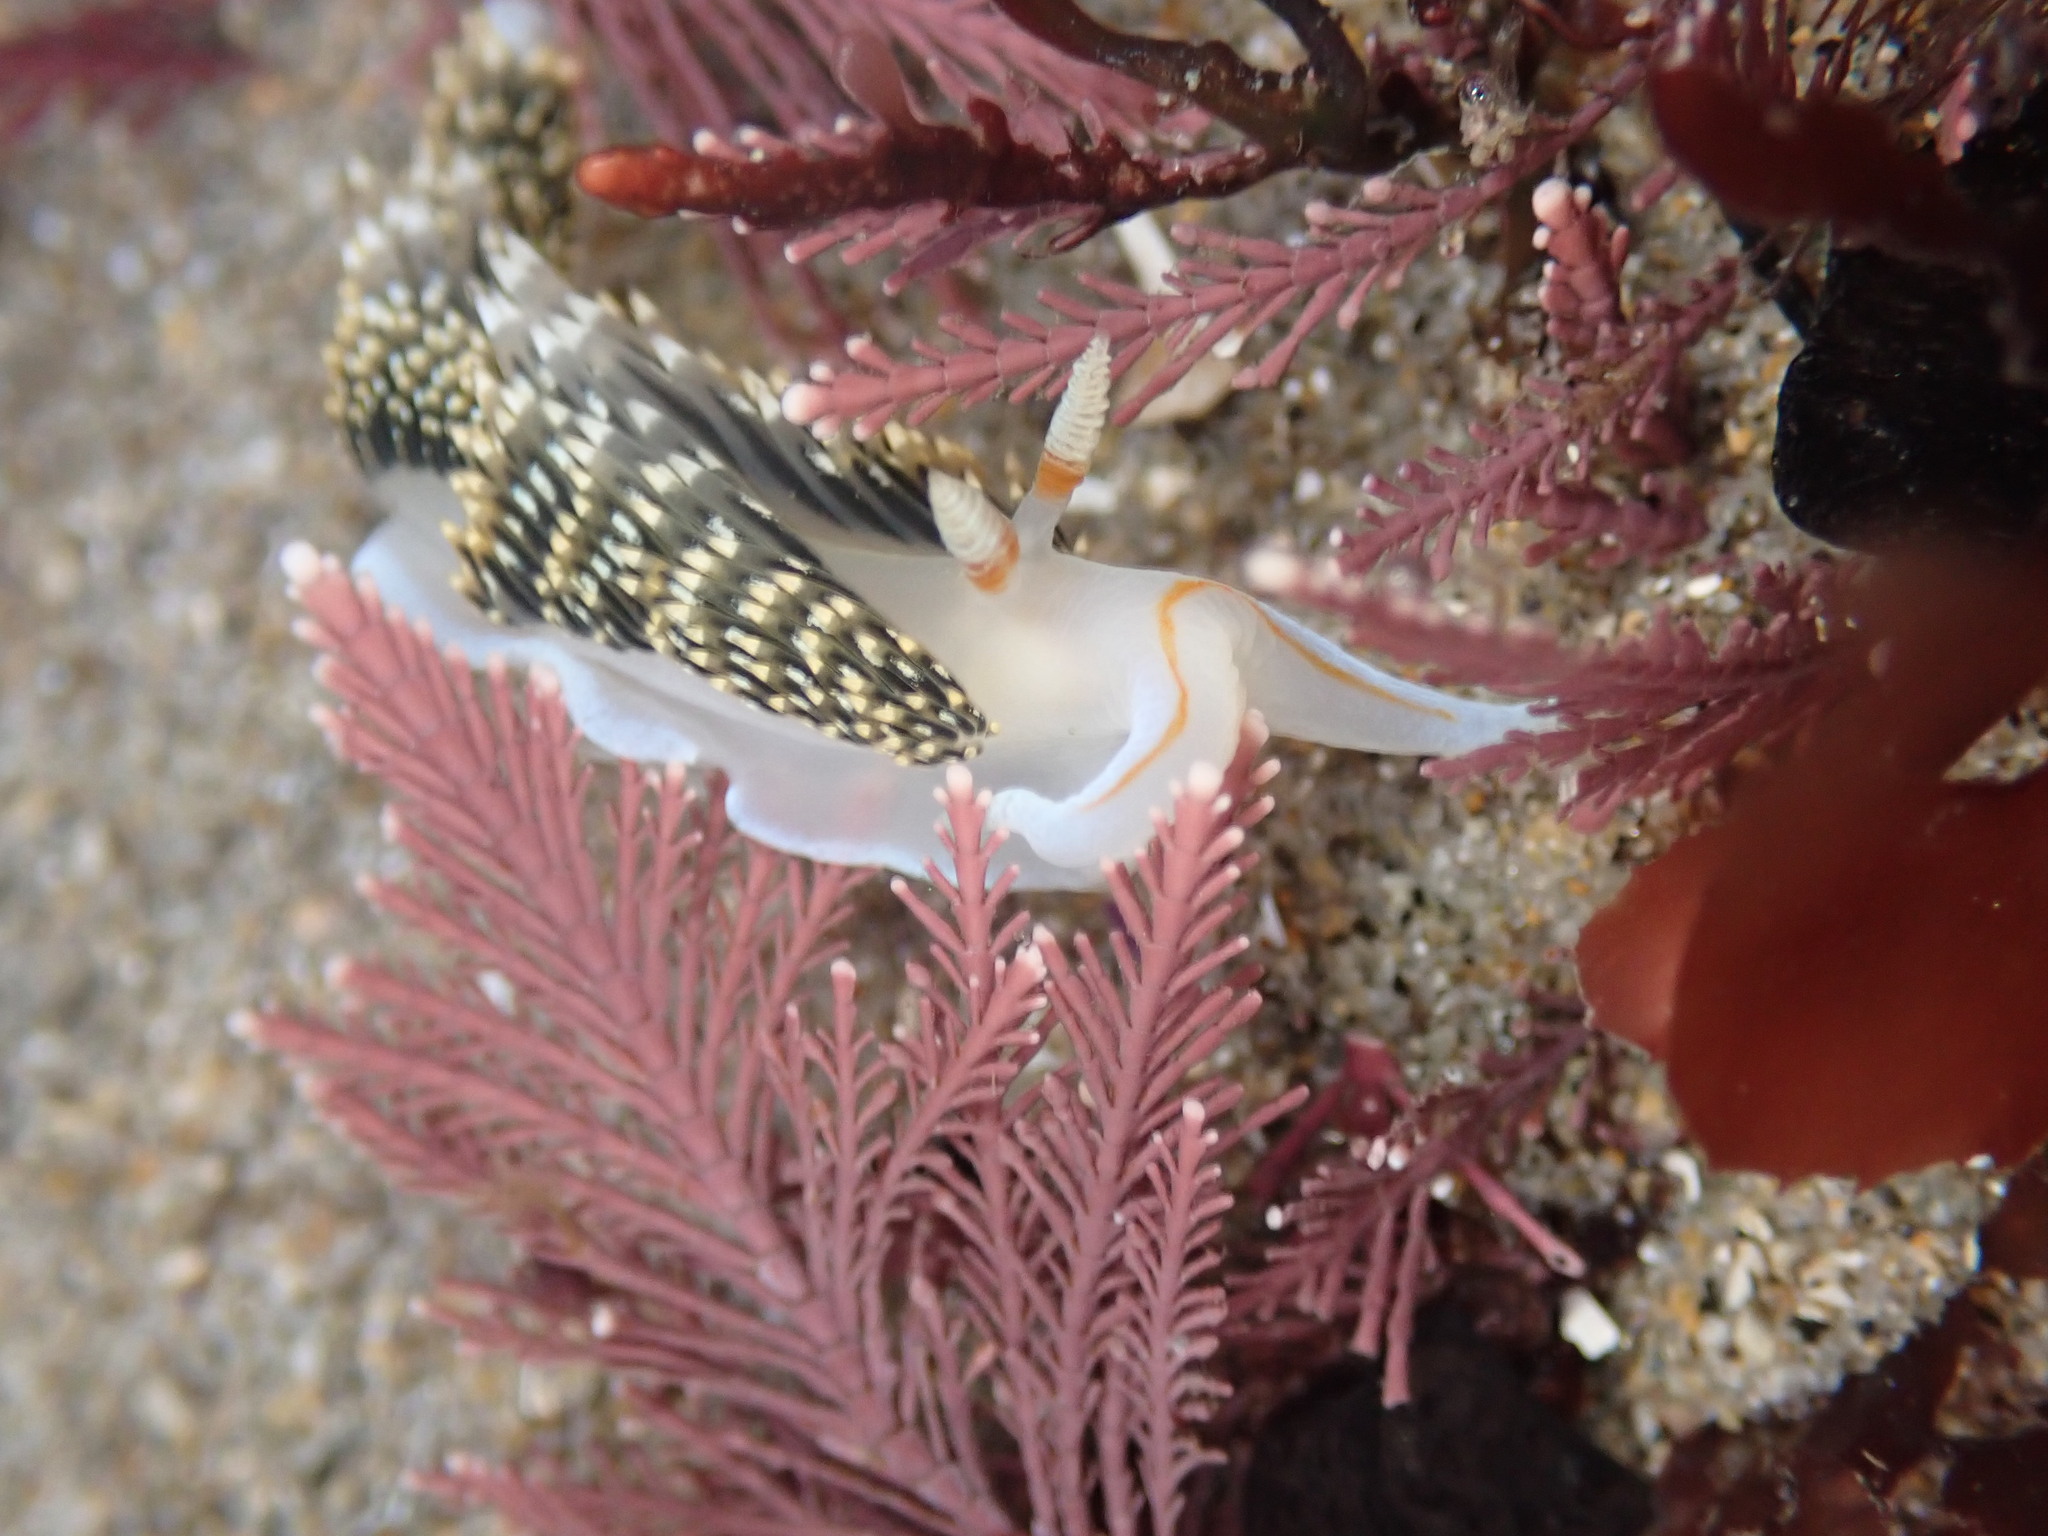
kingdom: Animalia
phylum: Mollusca
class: Gastropoda
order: Nudibranchia
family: Facelinidae
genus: Phidiana
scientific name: Phidiana hiltoni
